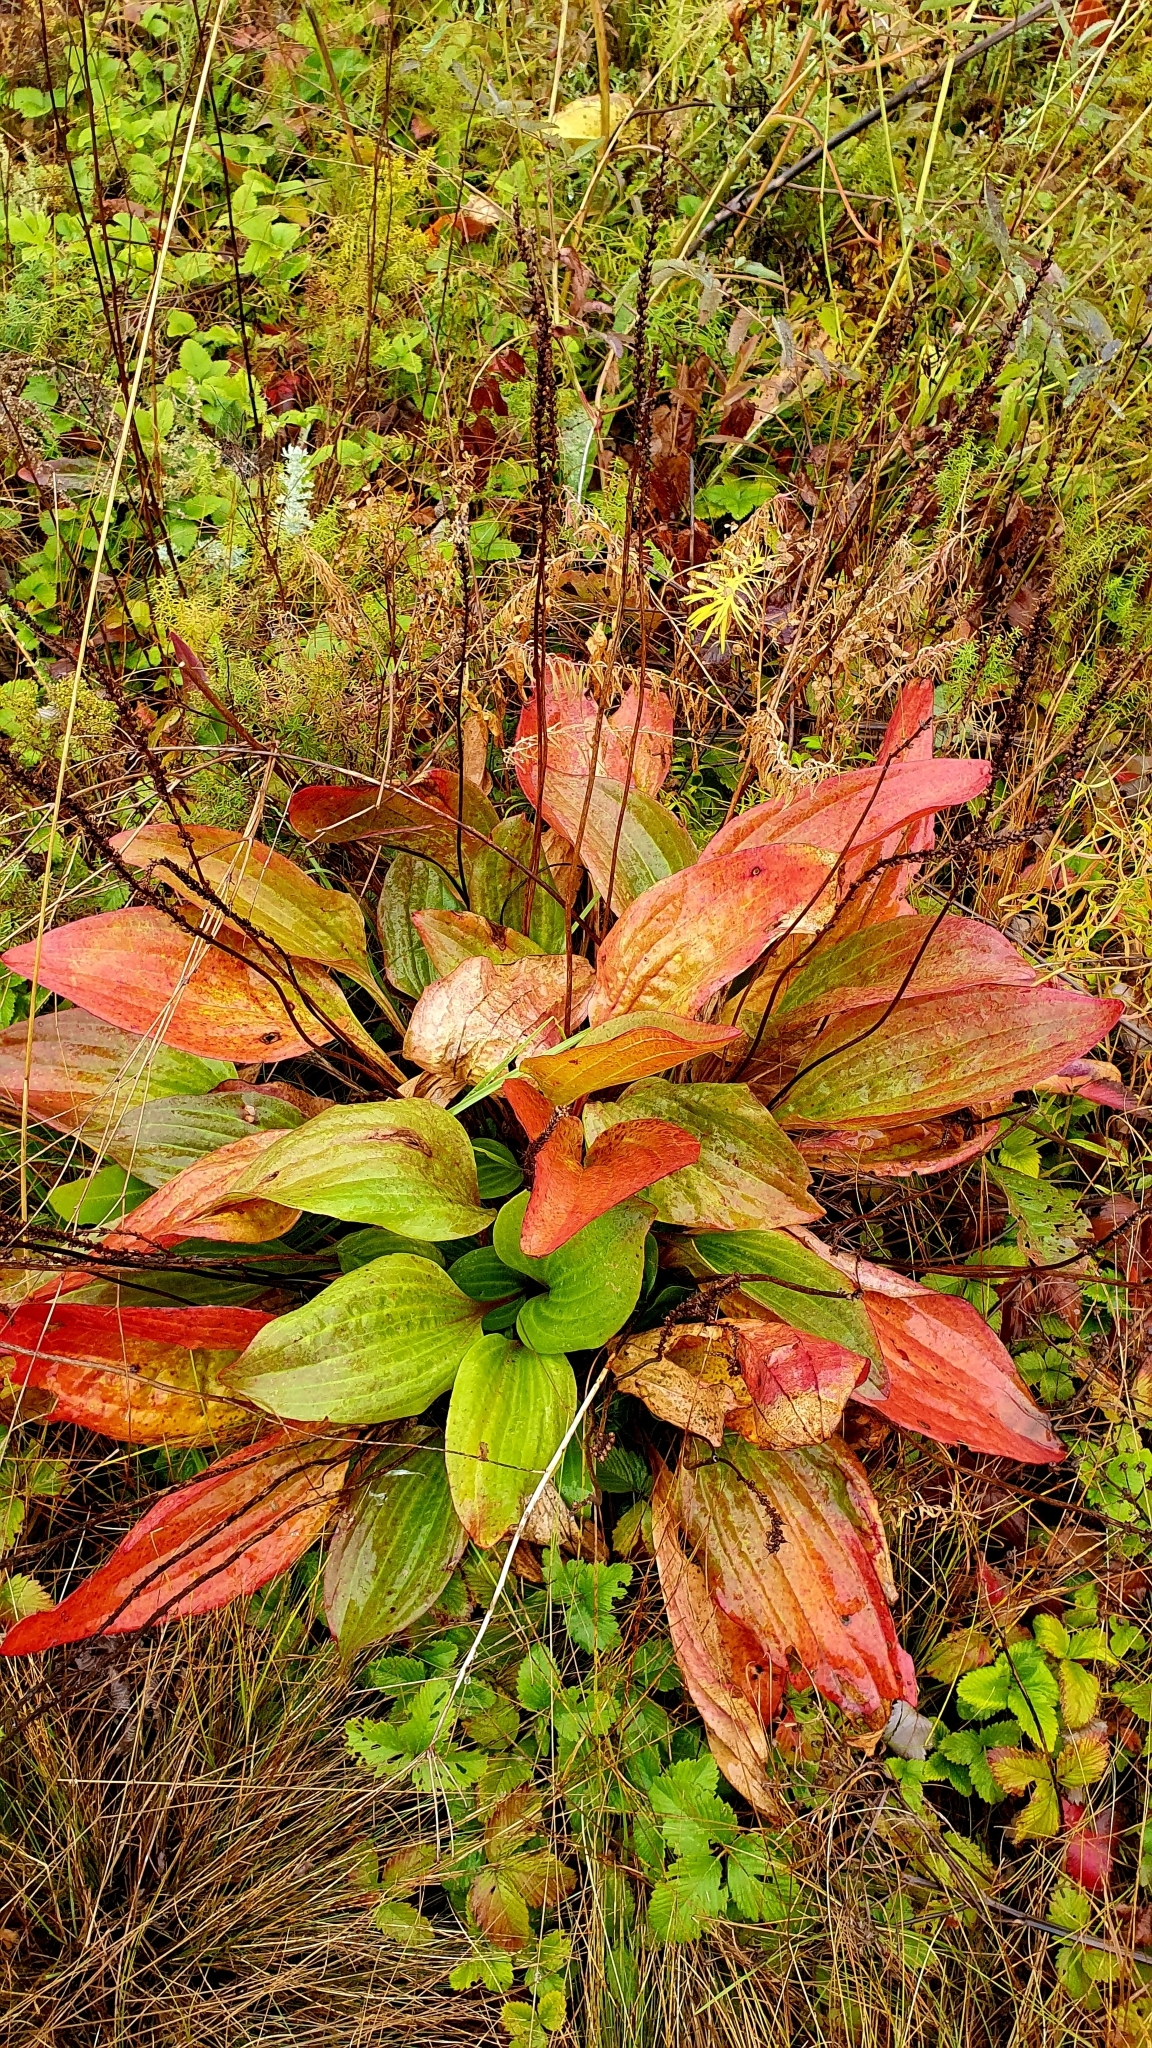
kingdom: Plantae
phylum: Tracheophyta
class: Magnoliopsida
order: Lamiales
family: Plantaginaceae
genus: Plantago
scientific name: Plantago cornuti
